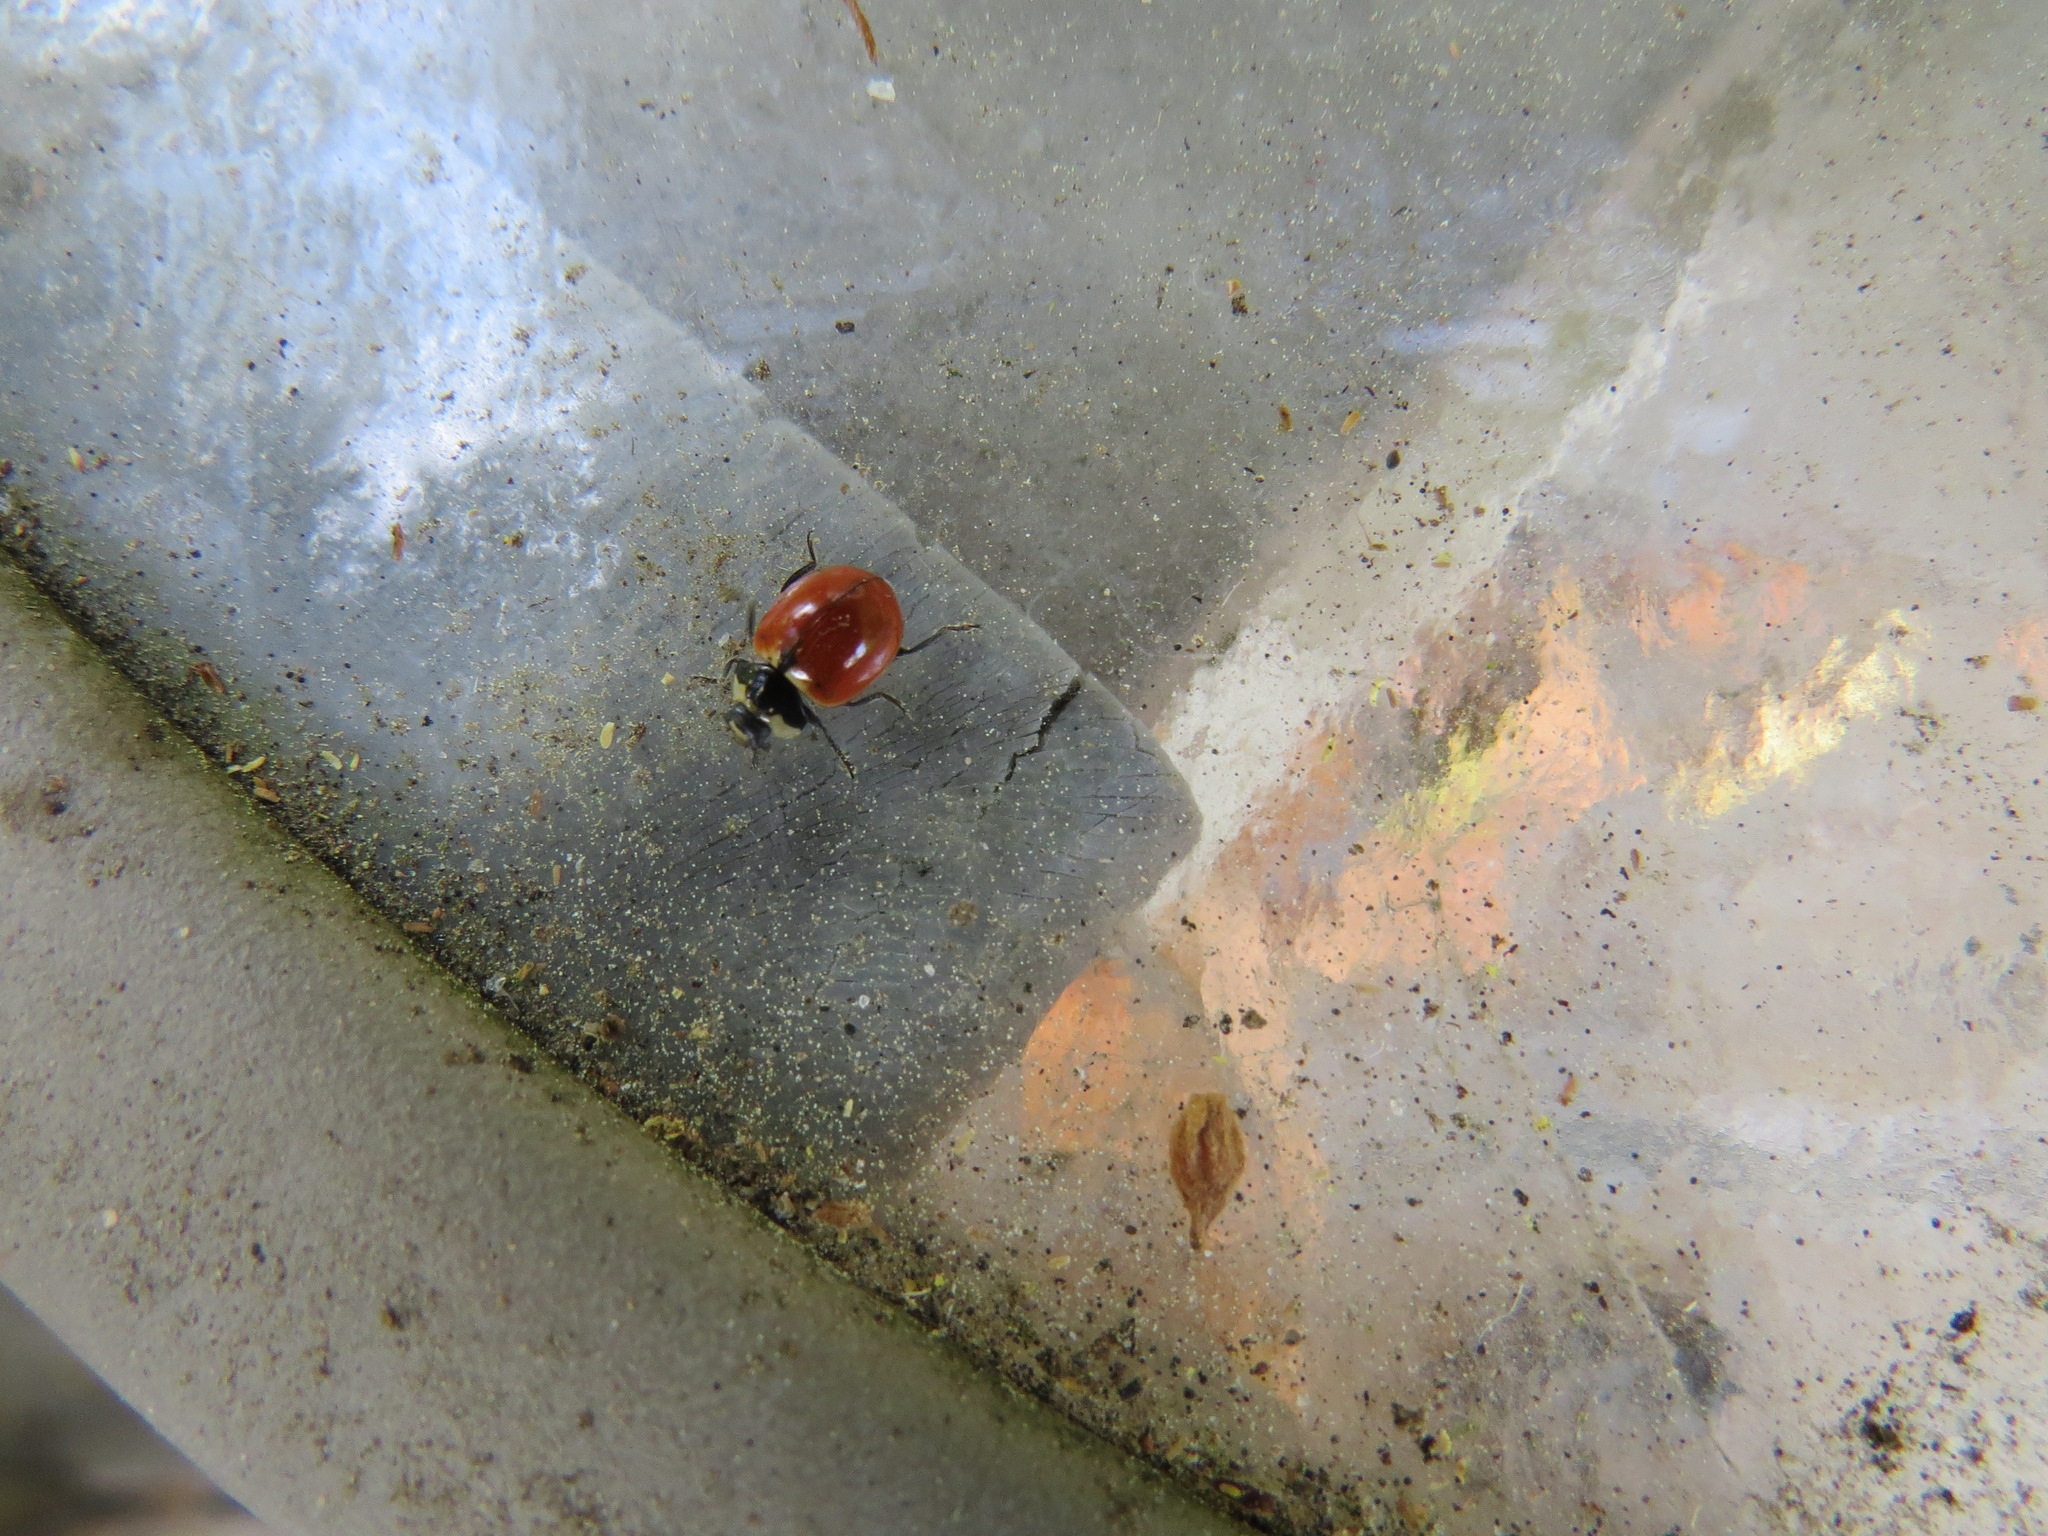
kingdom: Animalia
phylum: Arthropoda
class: Insecta
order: Coleoptera
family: Coccinellidae
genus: Coccinella
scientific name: Coccinella trifasciata
